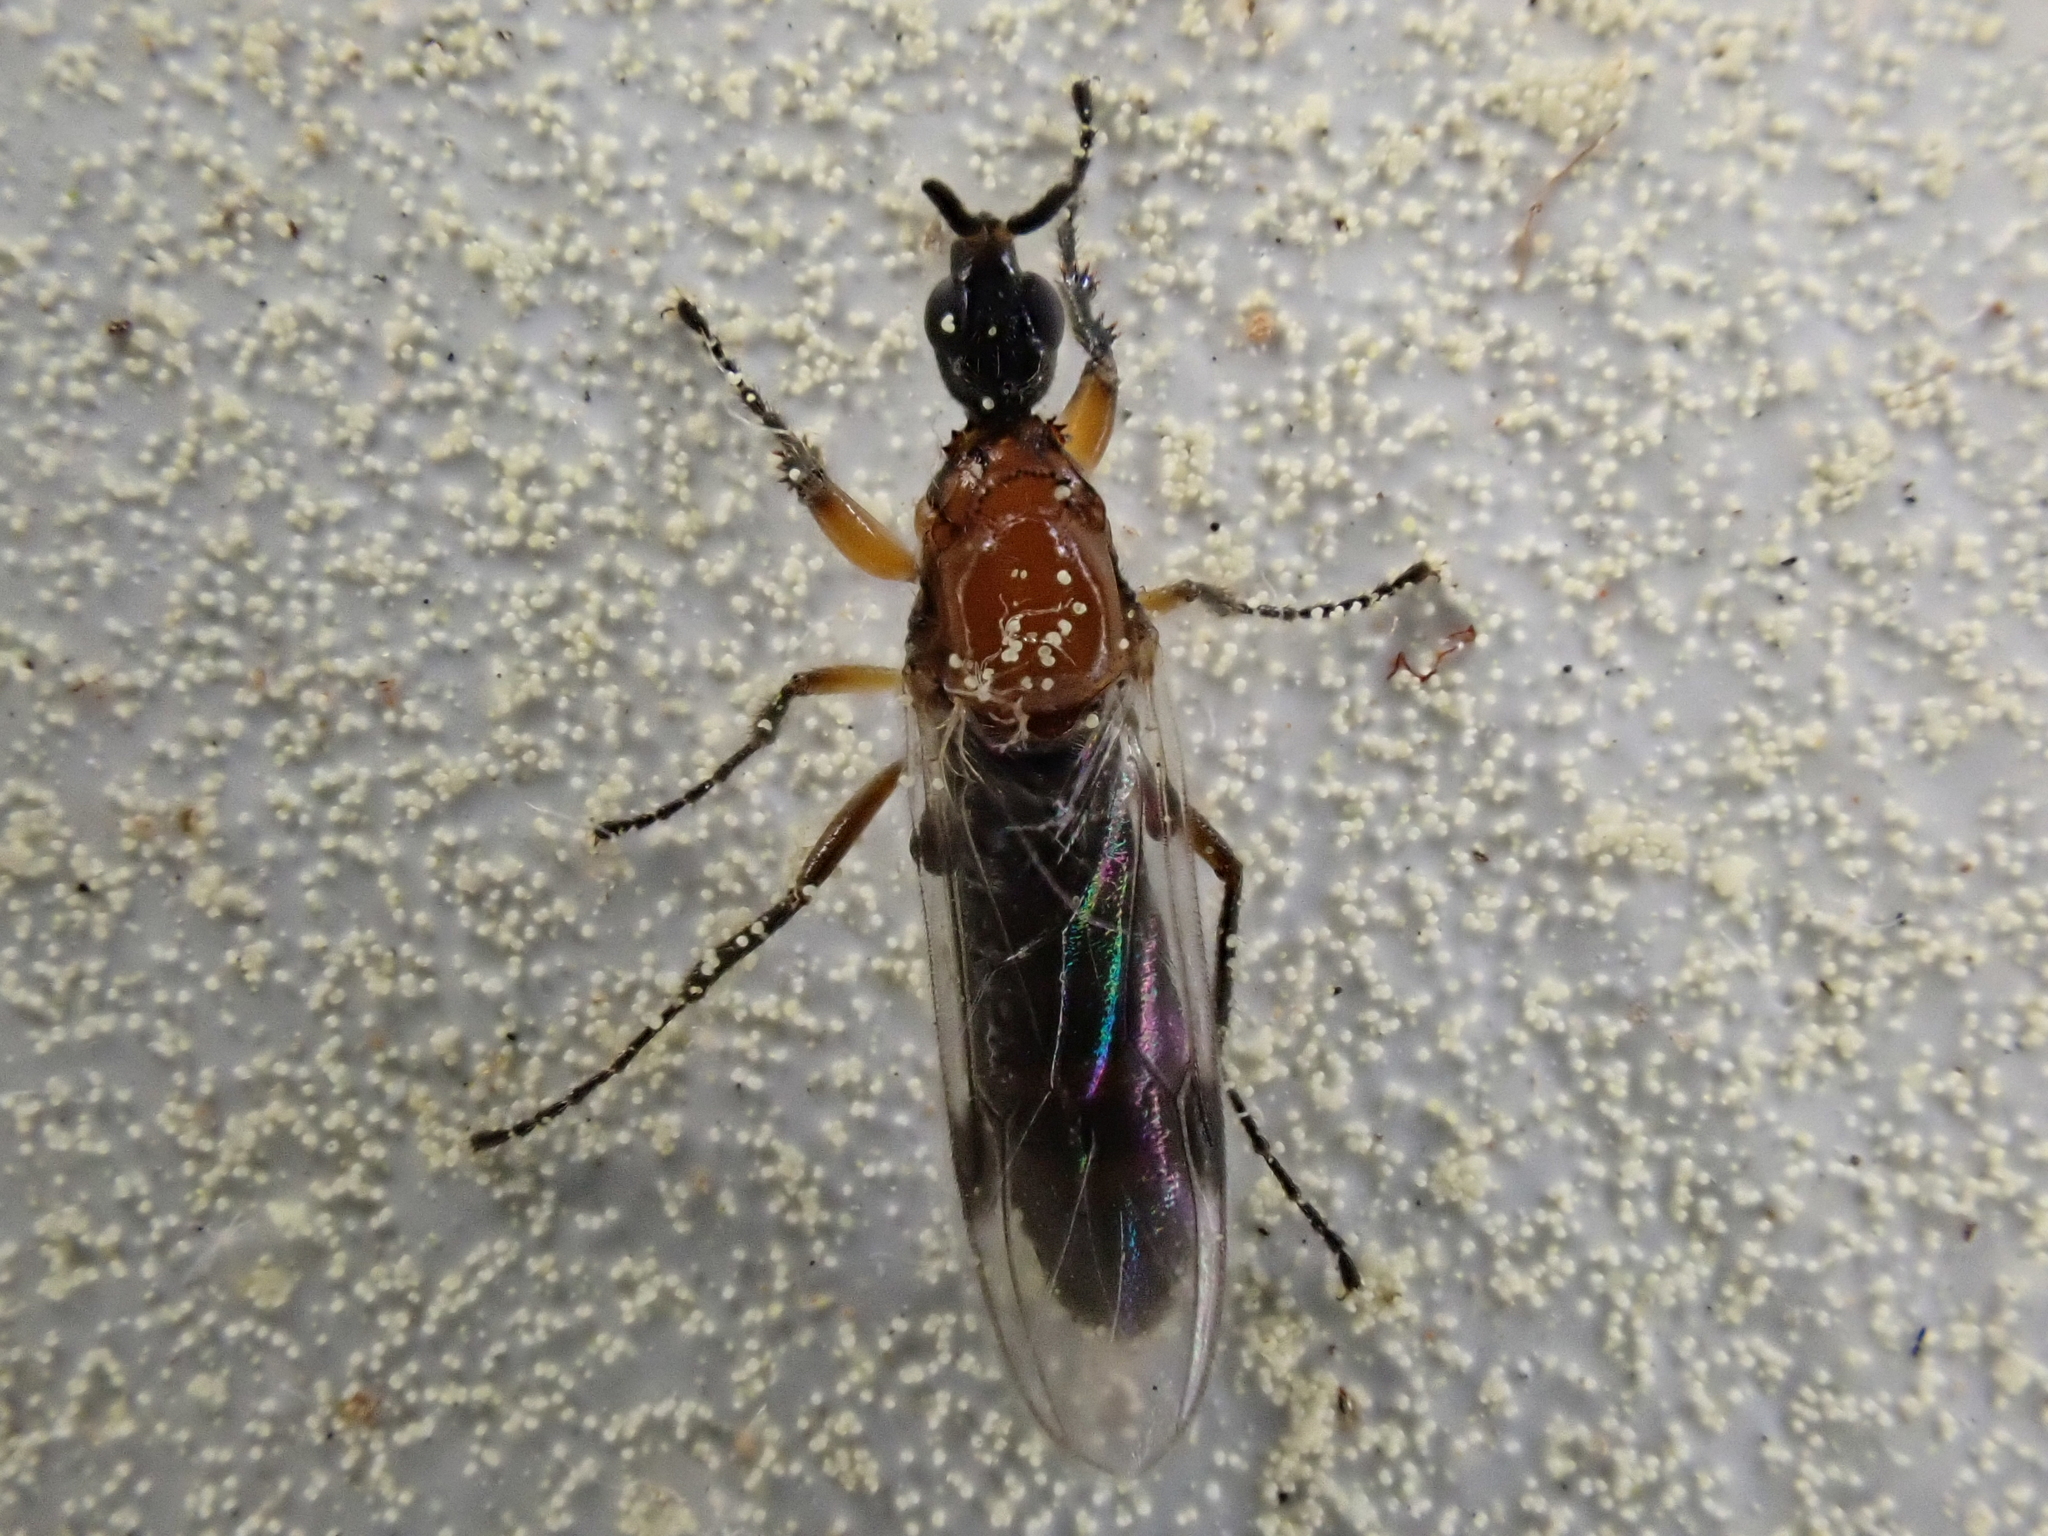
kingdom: Animalia
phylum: Arthropoda
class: Insecta
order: Diptera
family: Bibionidae
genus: Dilophus
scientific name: Dilophus
